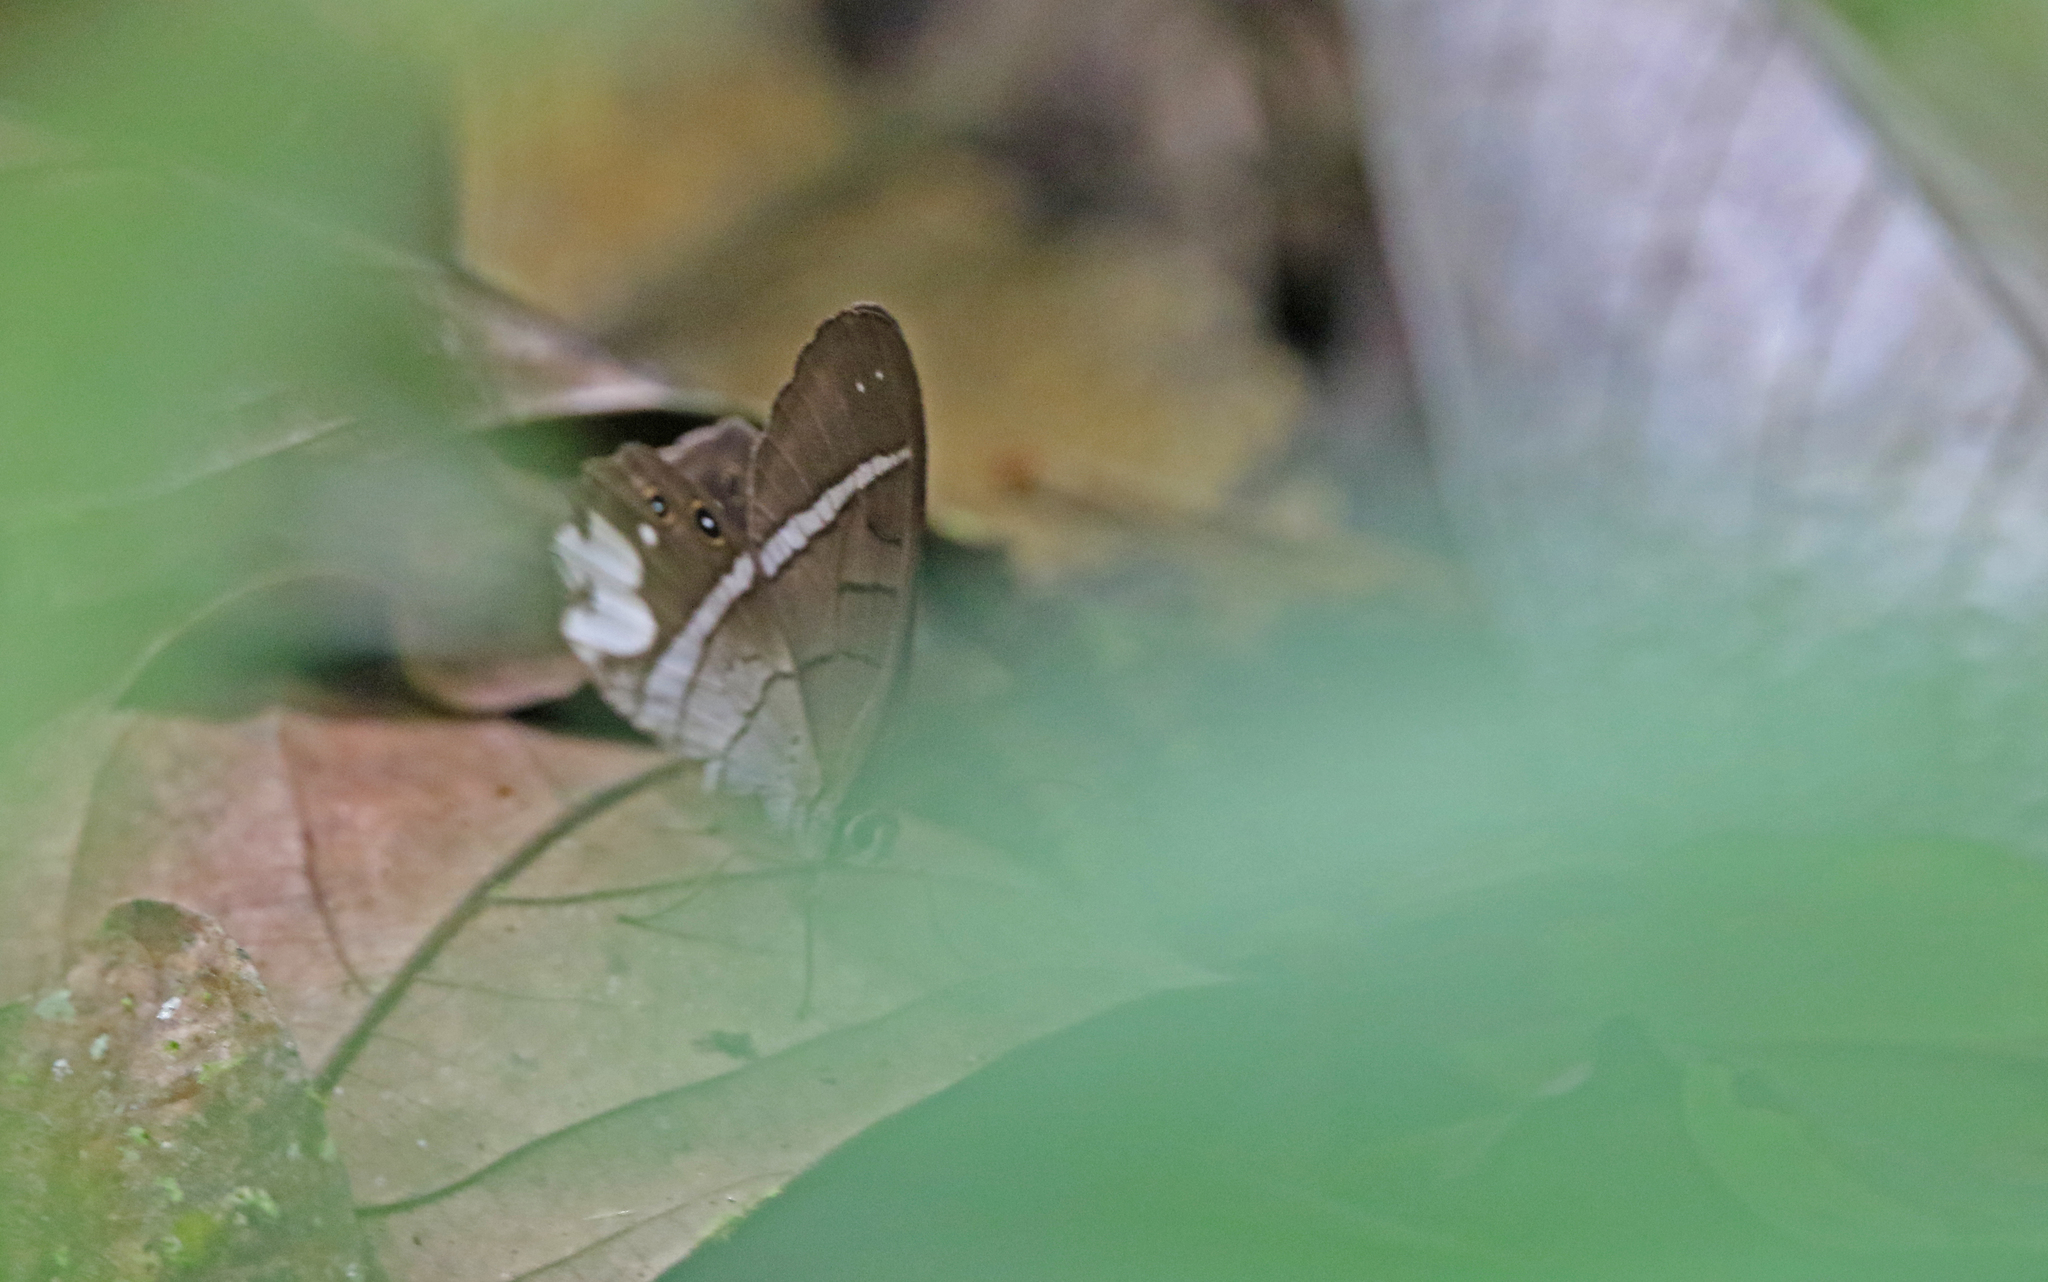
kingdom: Animalia
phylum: Arthropoda
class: Insecta
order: Lepidoptera
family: Nymphalidae
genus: Pierella
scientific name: Pierella astyoche
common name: Astyoche satyr
